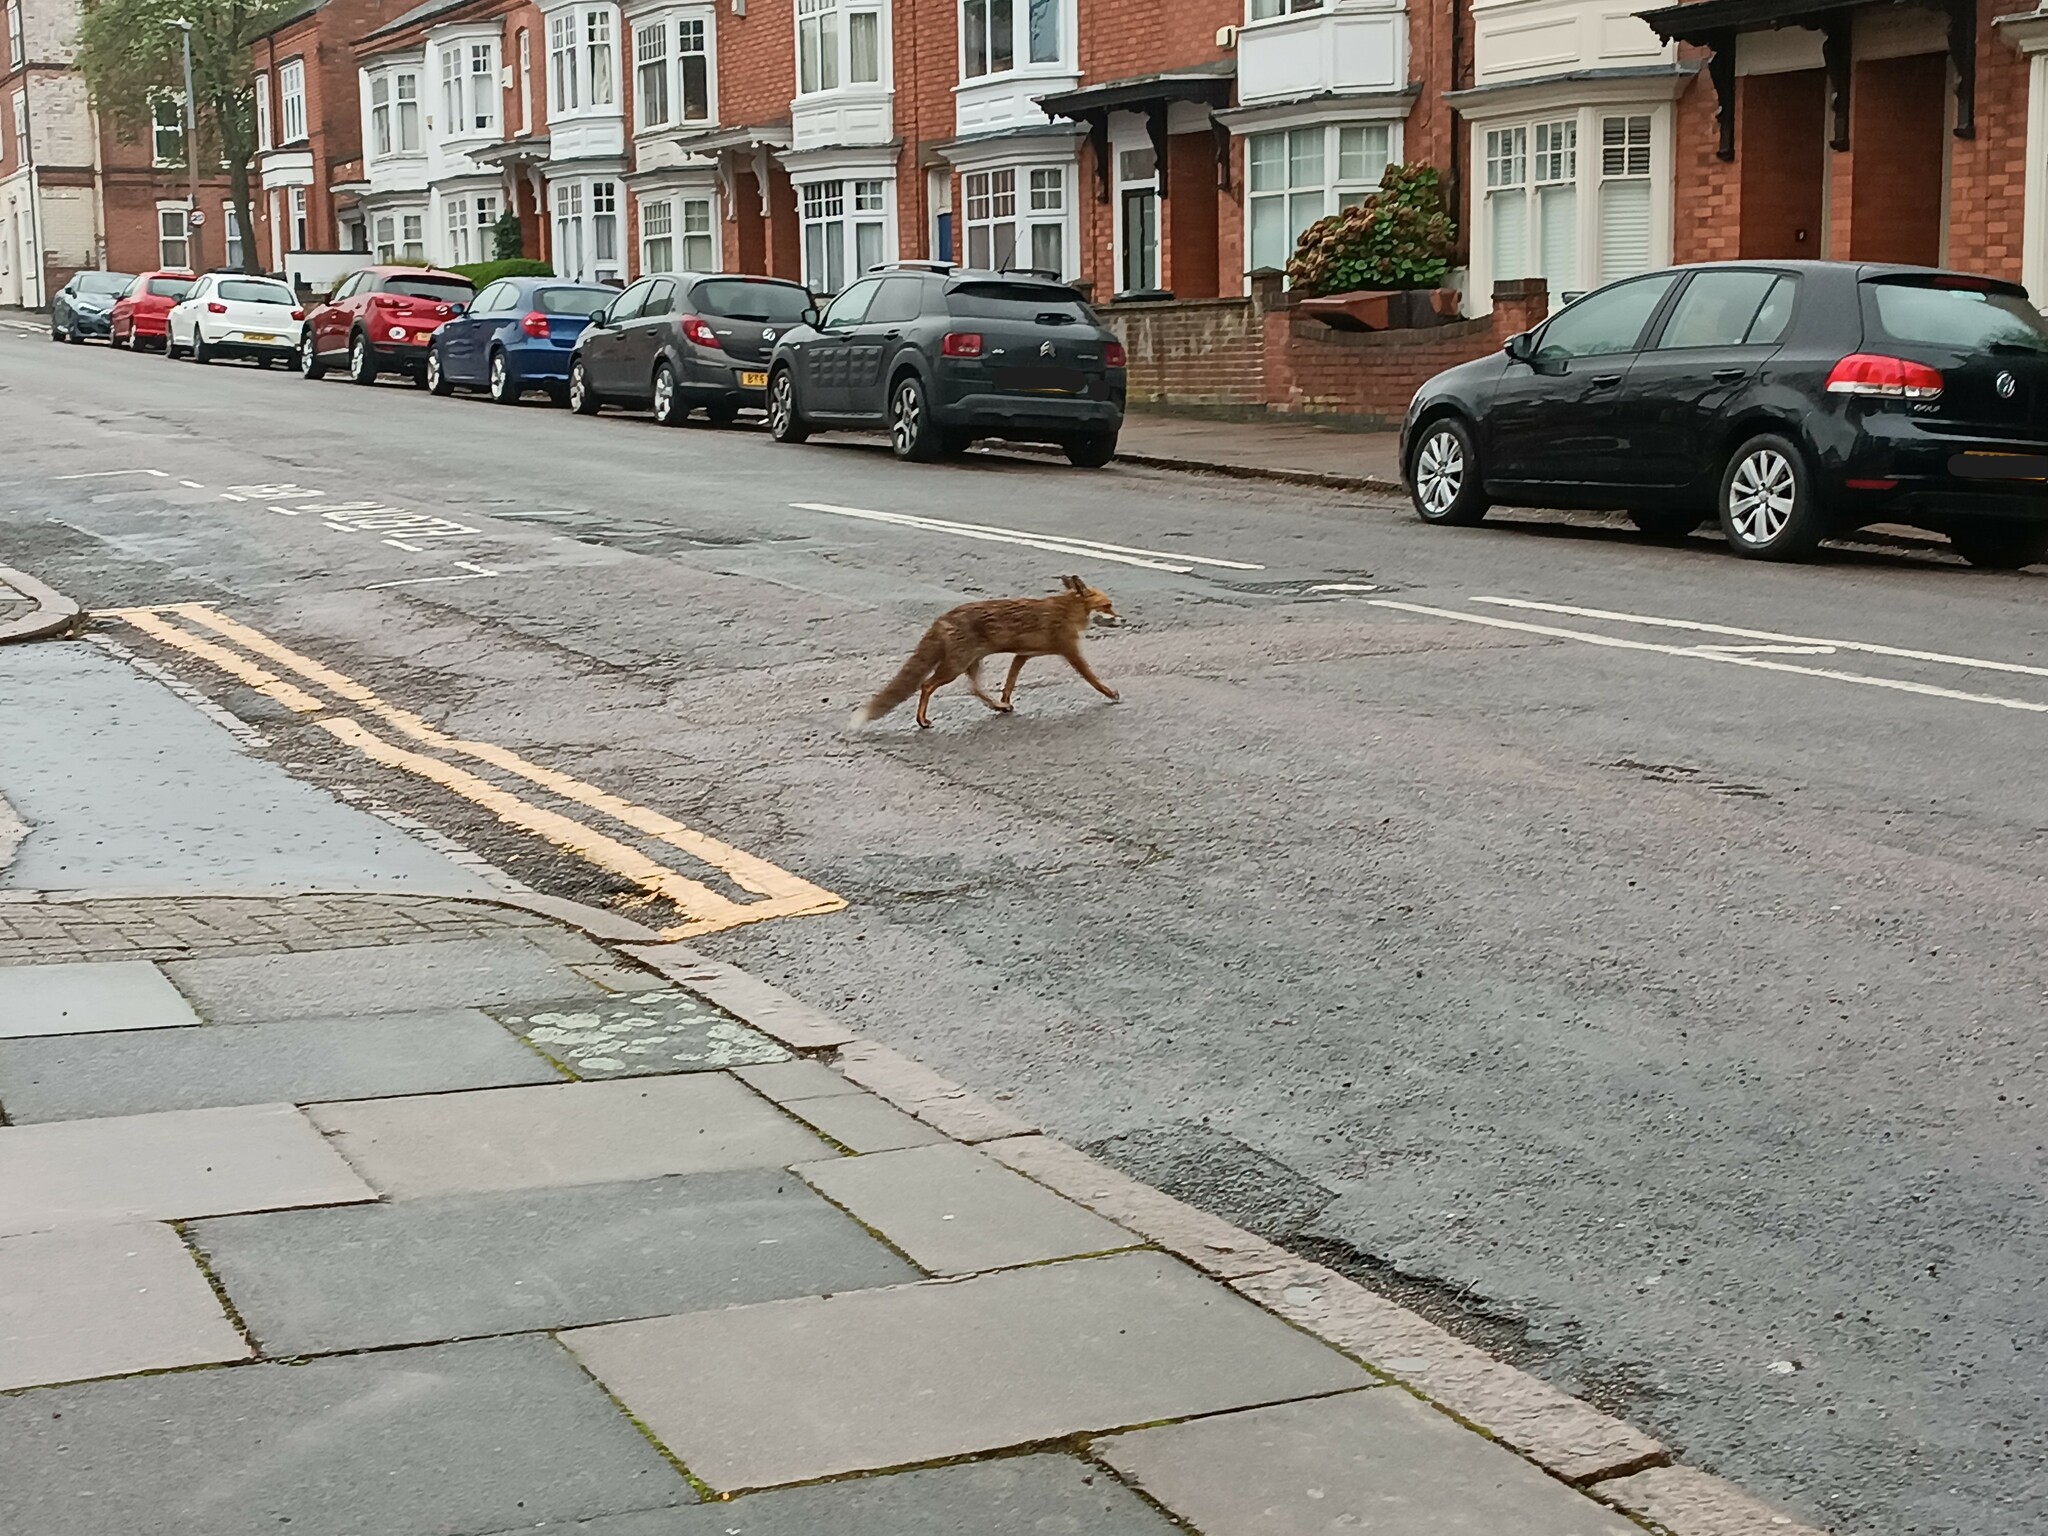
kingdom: Animalia
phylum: Chordata
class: Mammalia
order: Carnivora
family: Canidae
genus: Vulpes
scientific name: Vulpes vulpes
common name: Red fox
